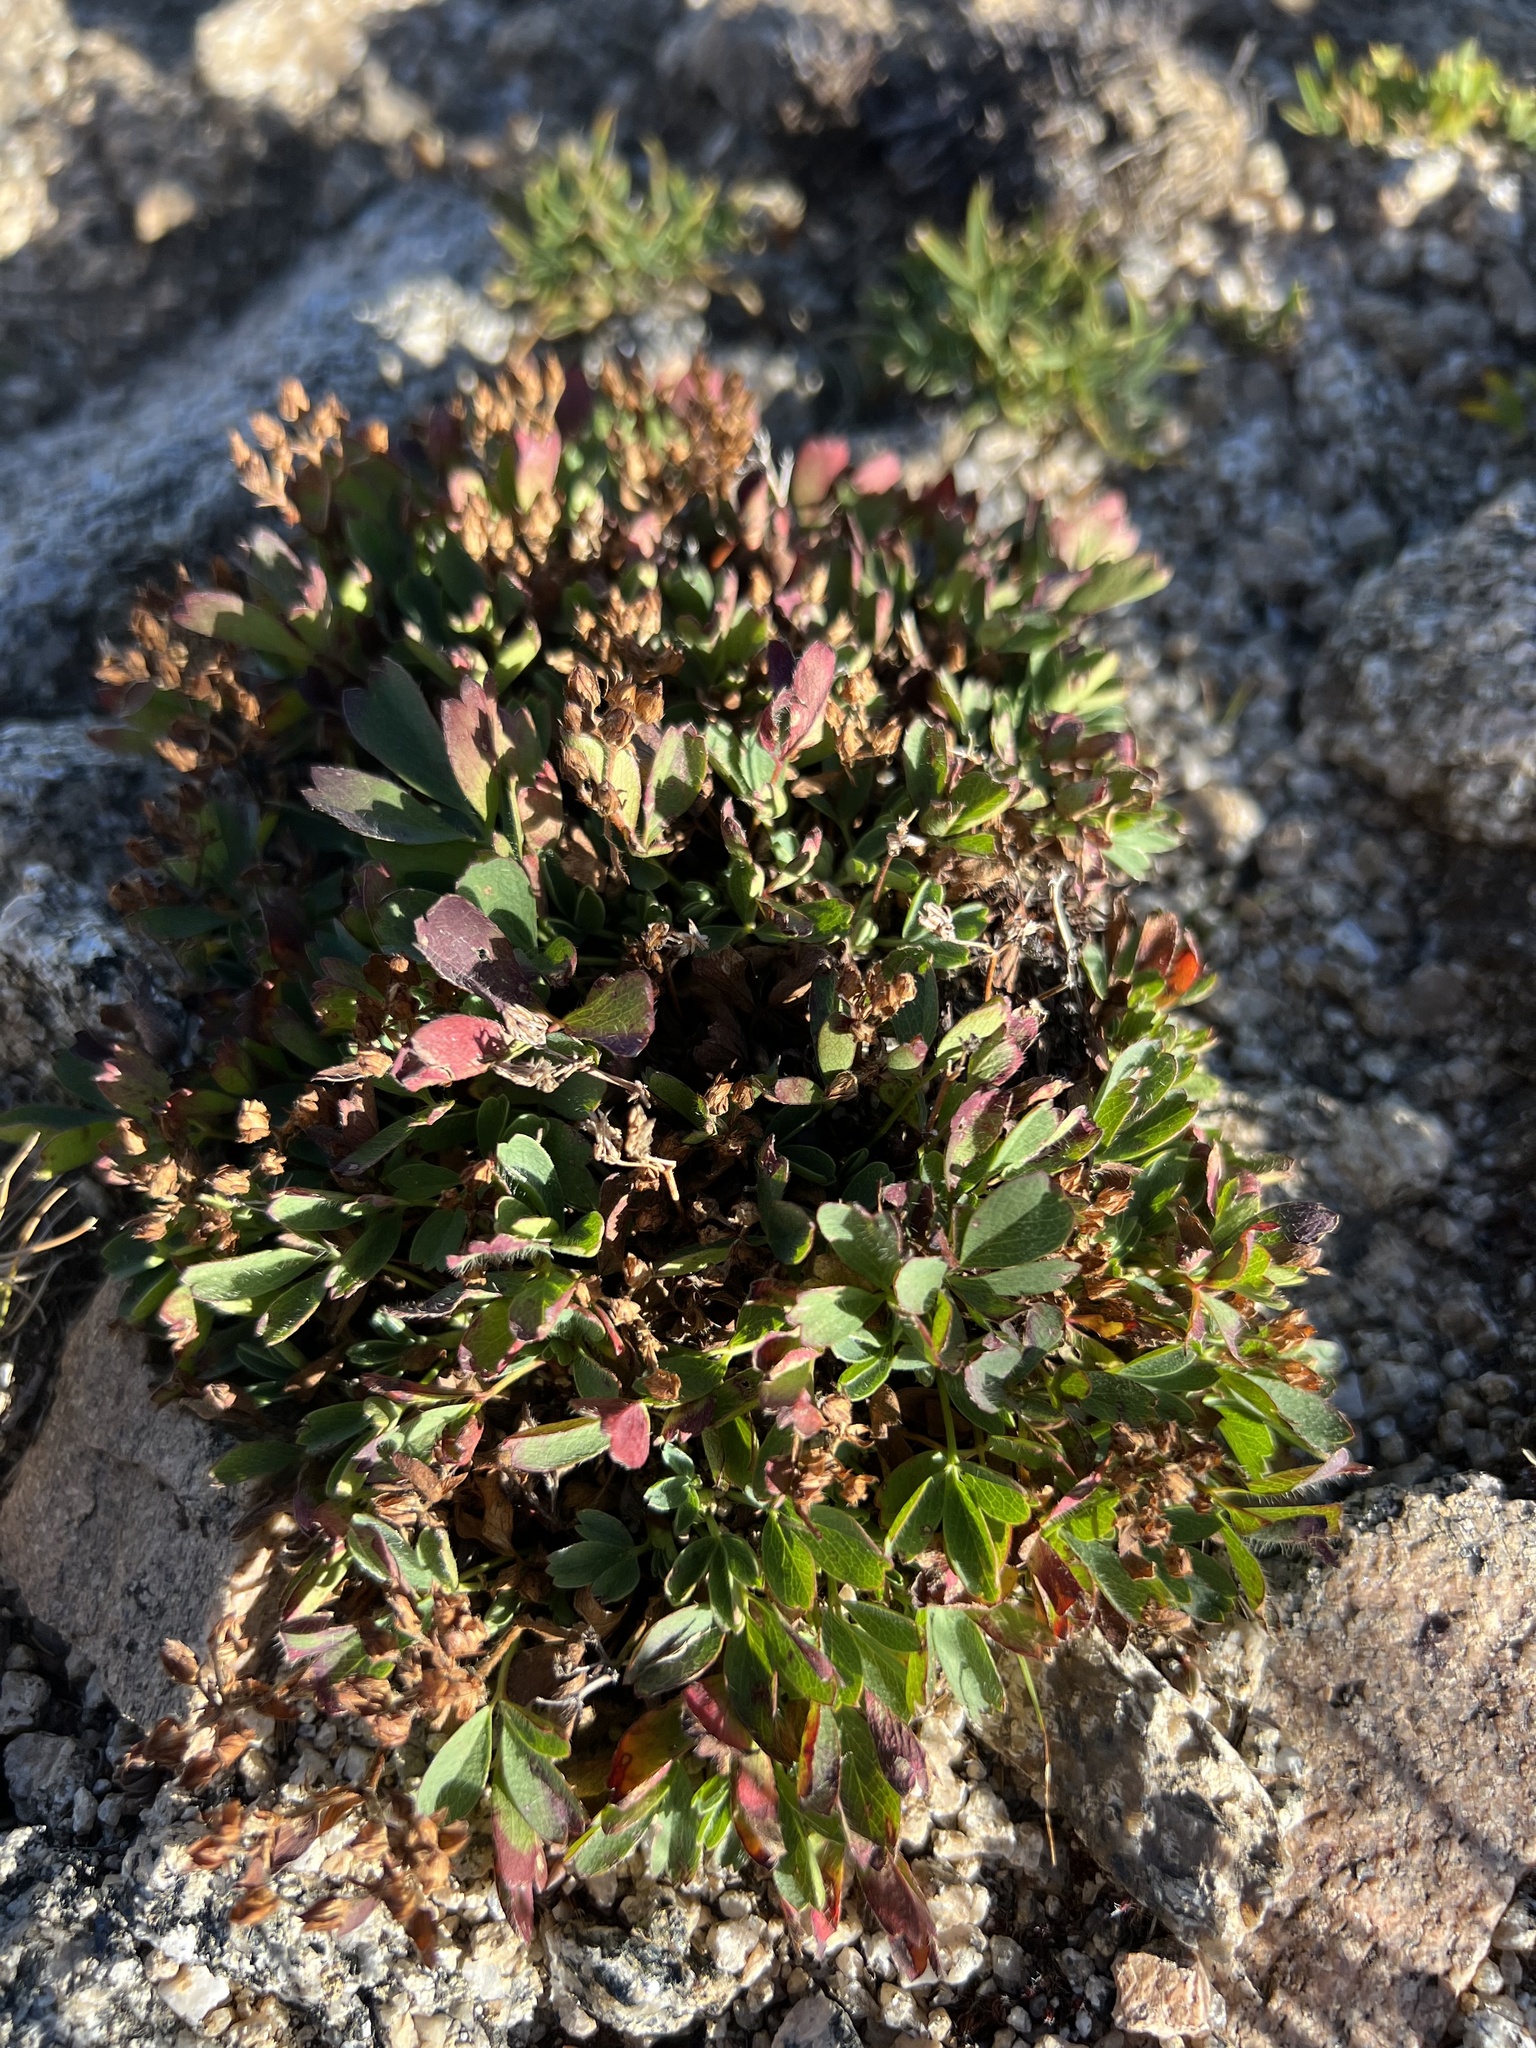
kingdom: Plantae
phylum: Tracheophyta
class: Magnoliopsida
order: Rosales
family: Rosaceae
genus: Sibbaldia
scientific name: Sibbaldia procumbens
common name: Creeping sibbaldia
